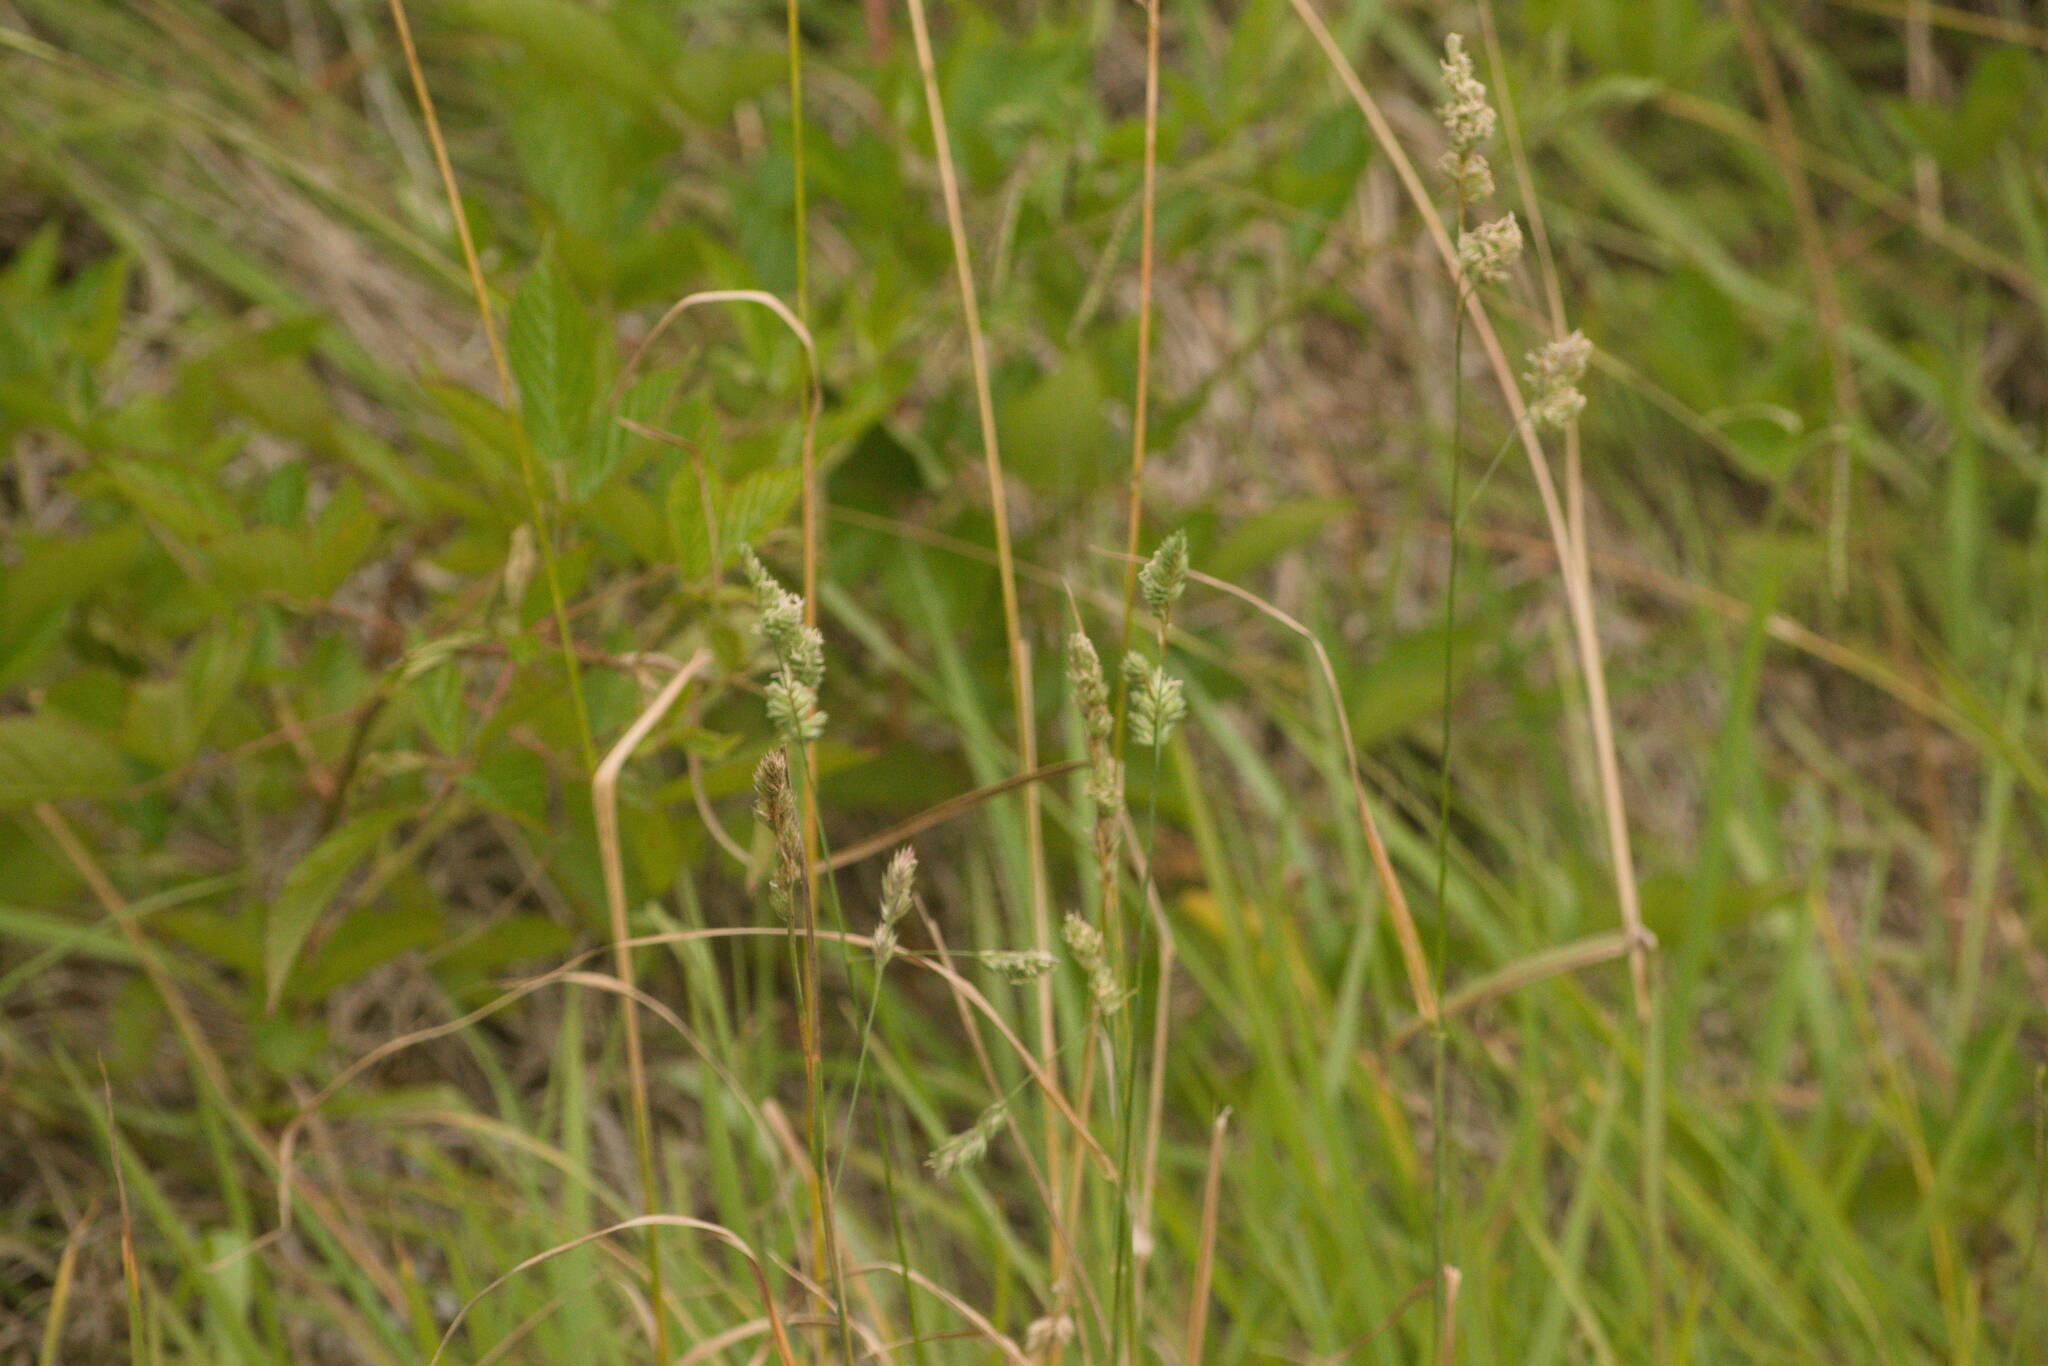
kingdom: Plantae
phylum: Tracheophyta
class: Liliopsida
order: Poales
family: Poaceae
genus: Dactylis
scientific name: Dactylis glomerata
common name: Orchardgrass
